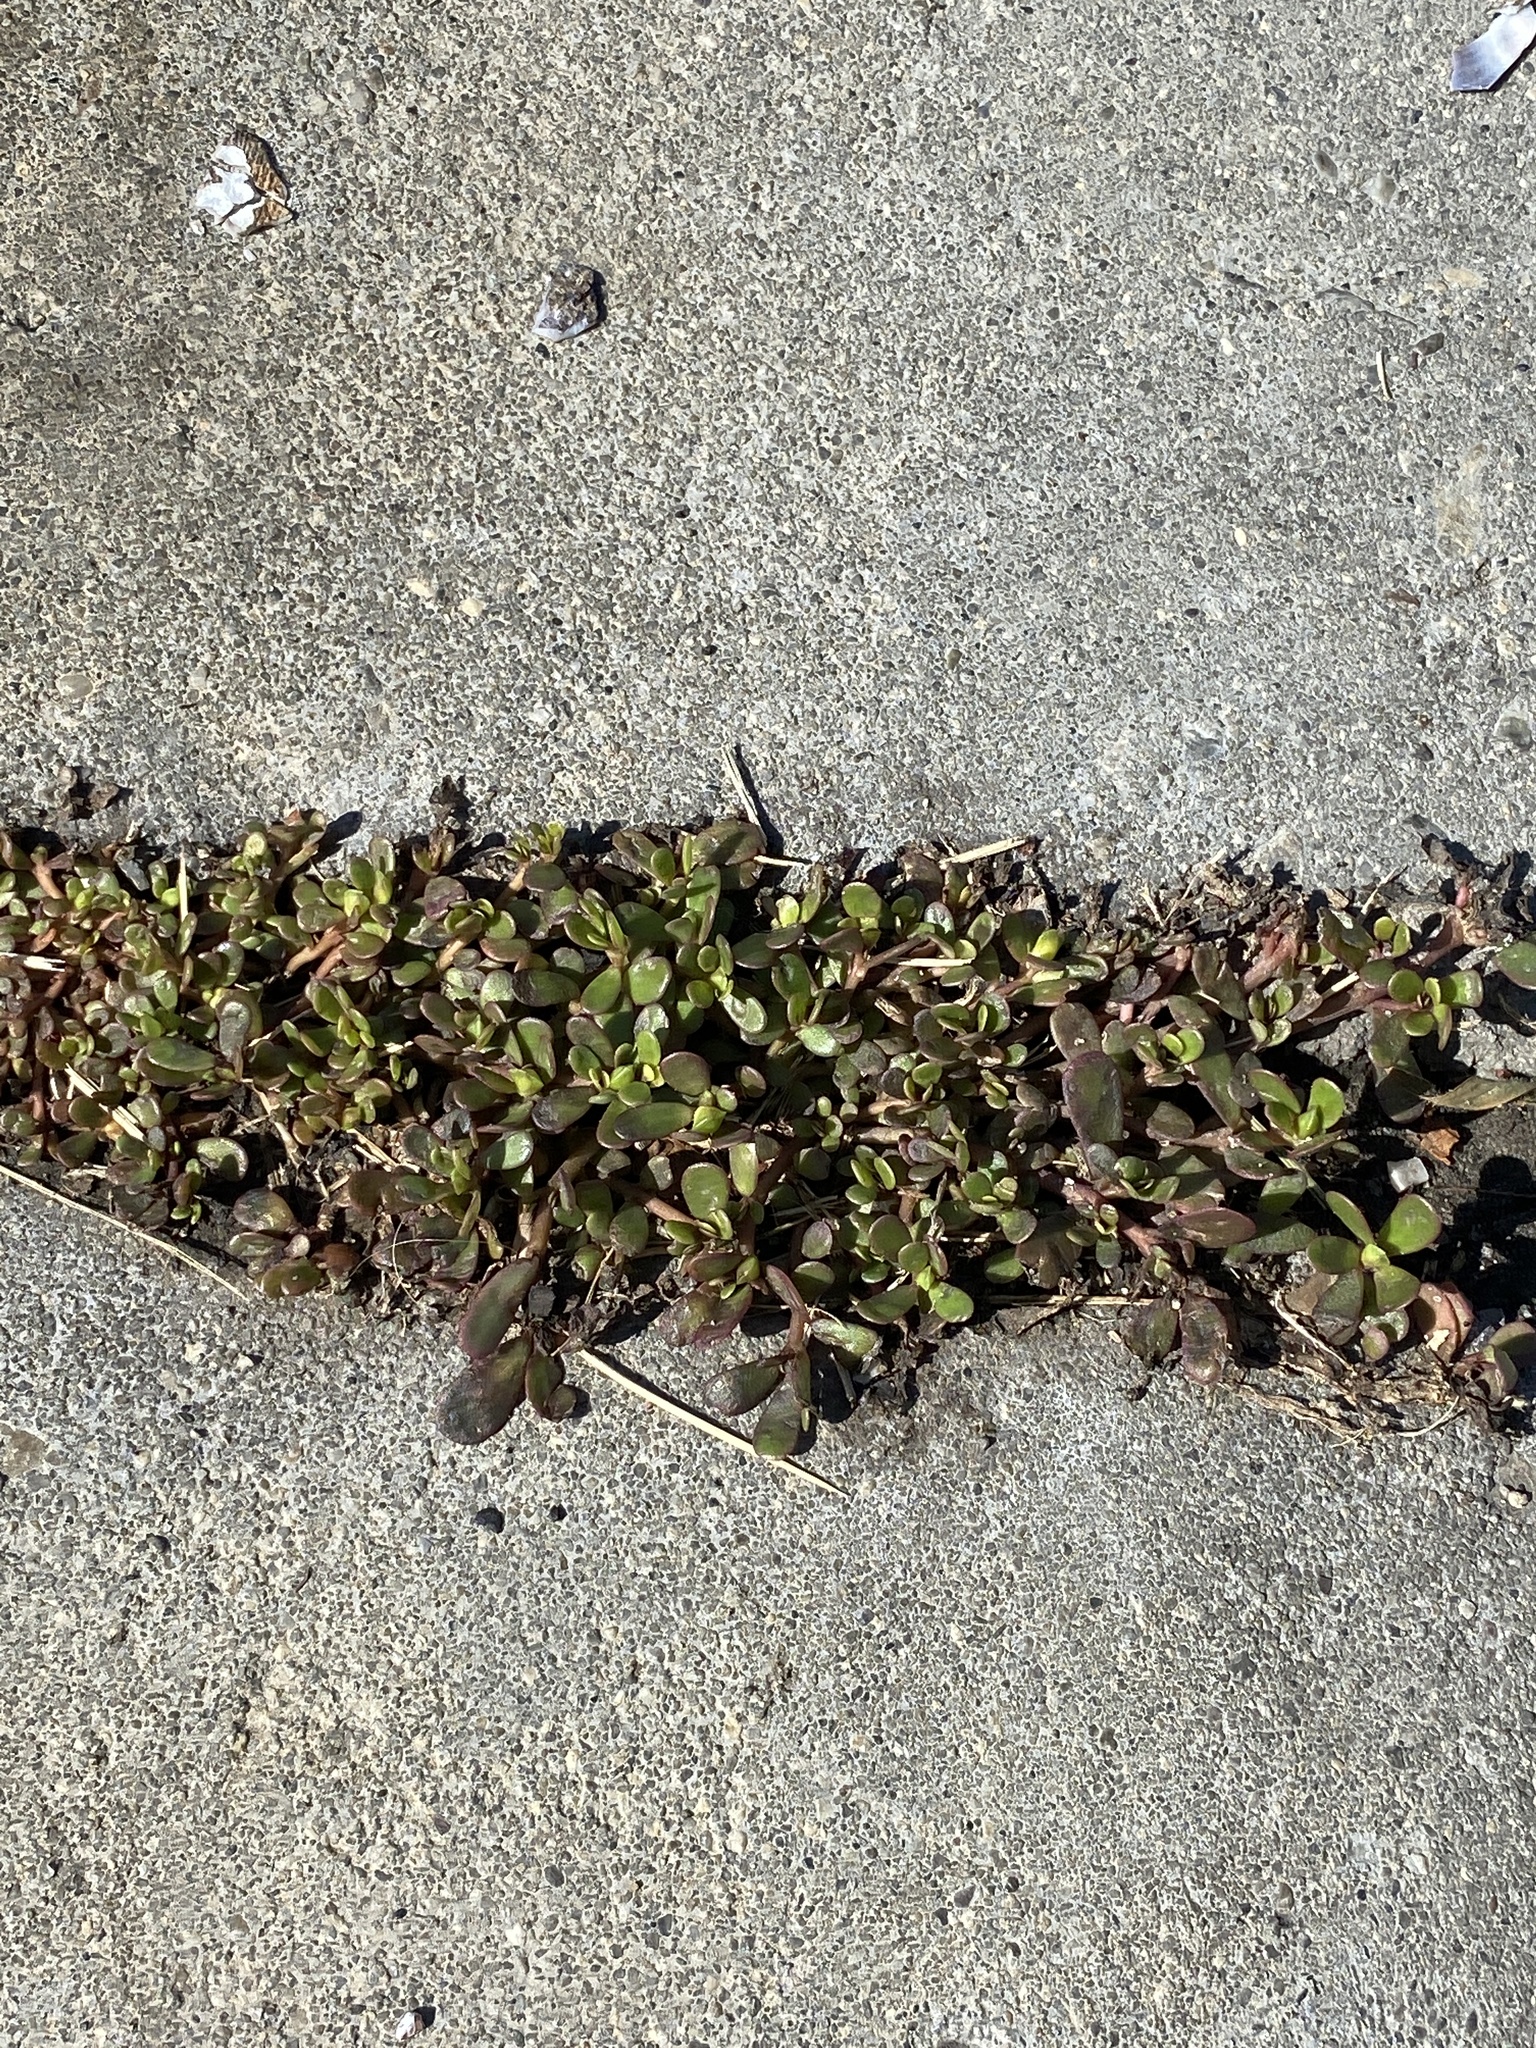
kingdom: Plantae
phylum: Tracheophyta
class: Magnoliopsida
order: Caryophyllales
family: Portulacaceae
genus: Portulaca
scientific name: Portulaca oleracea
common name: Common purslane
